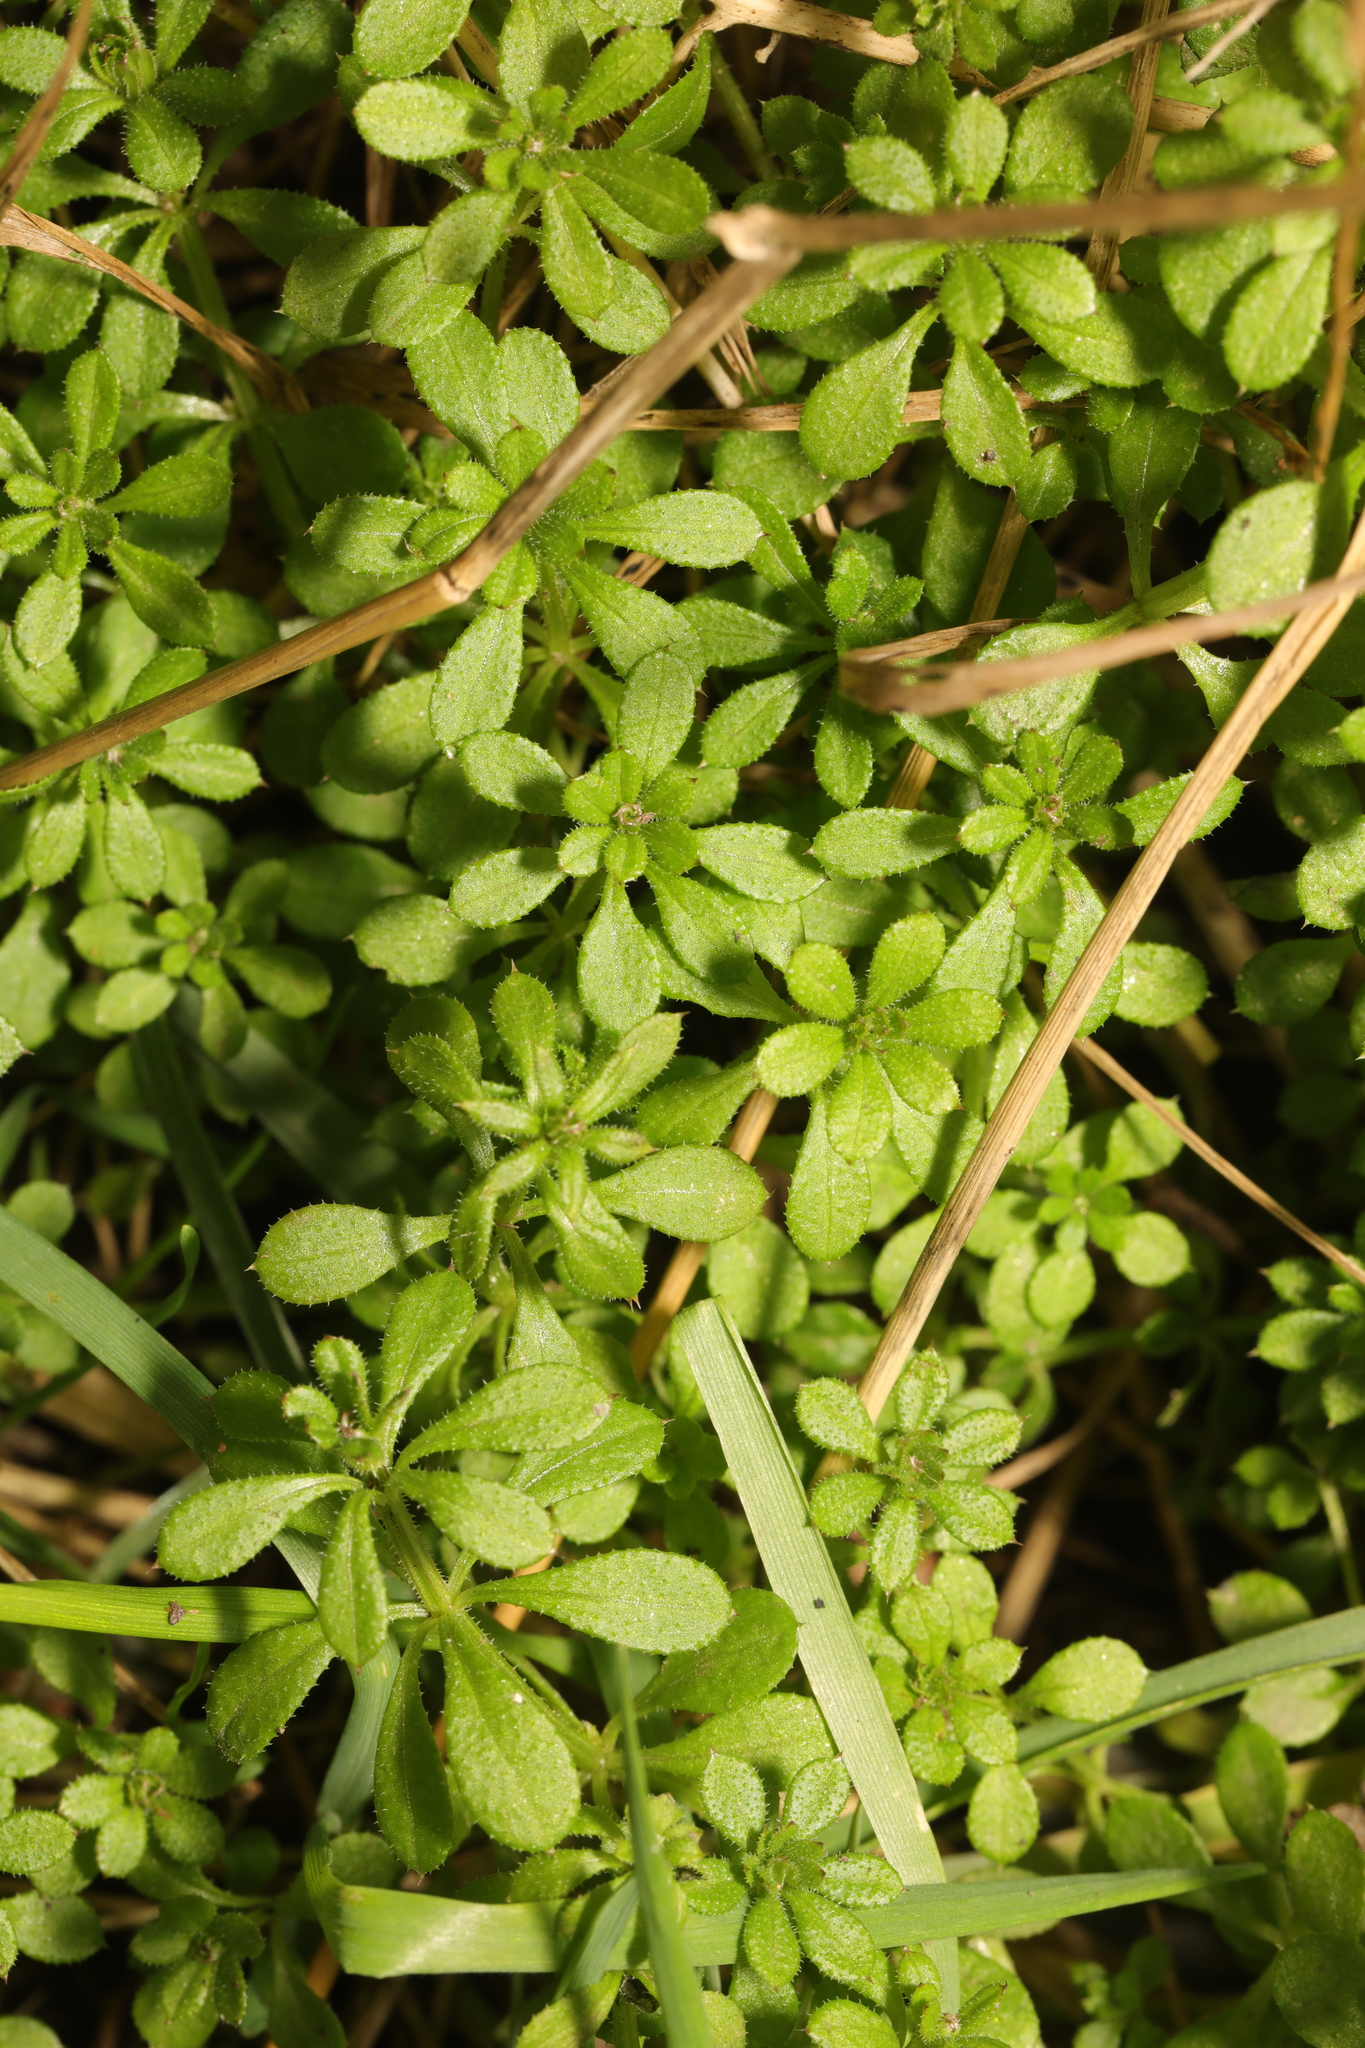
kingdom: Plantae
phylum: Tracheophyta
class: Magnoliopsida
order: Gentianales
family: Rubiaceae
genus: Galium
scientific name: Galium aparine
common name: Cleavers
